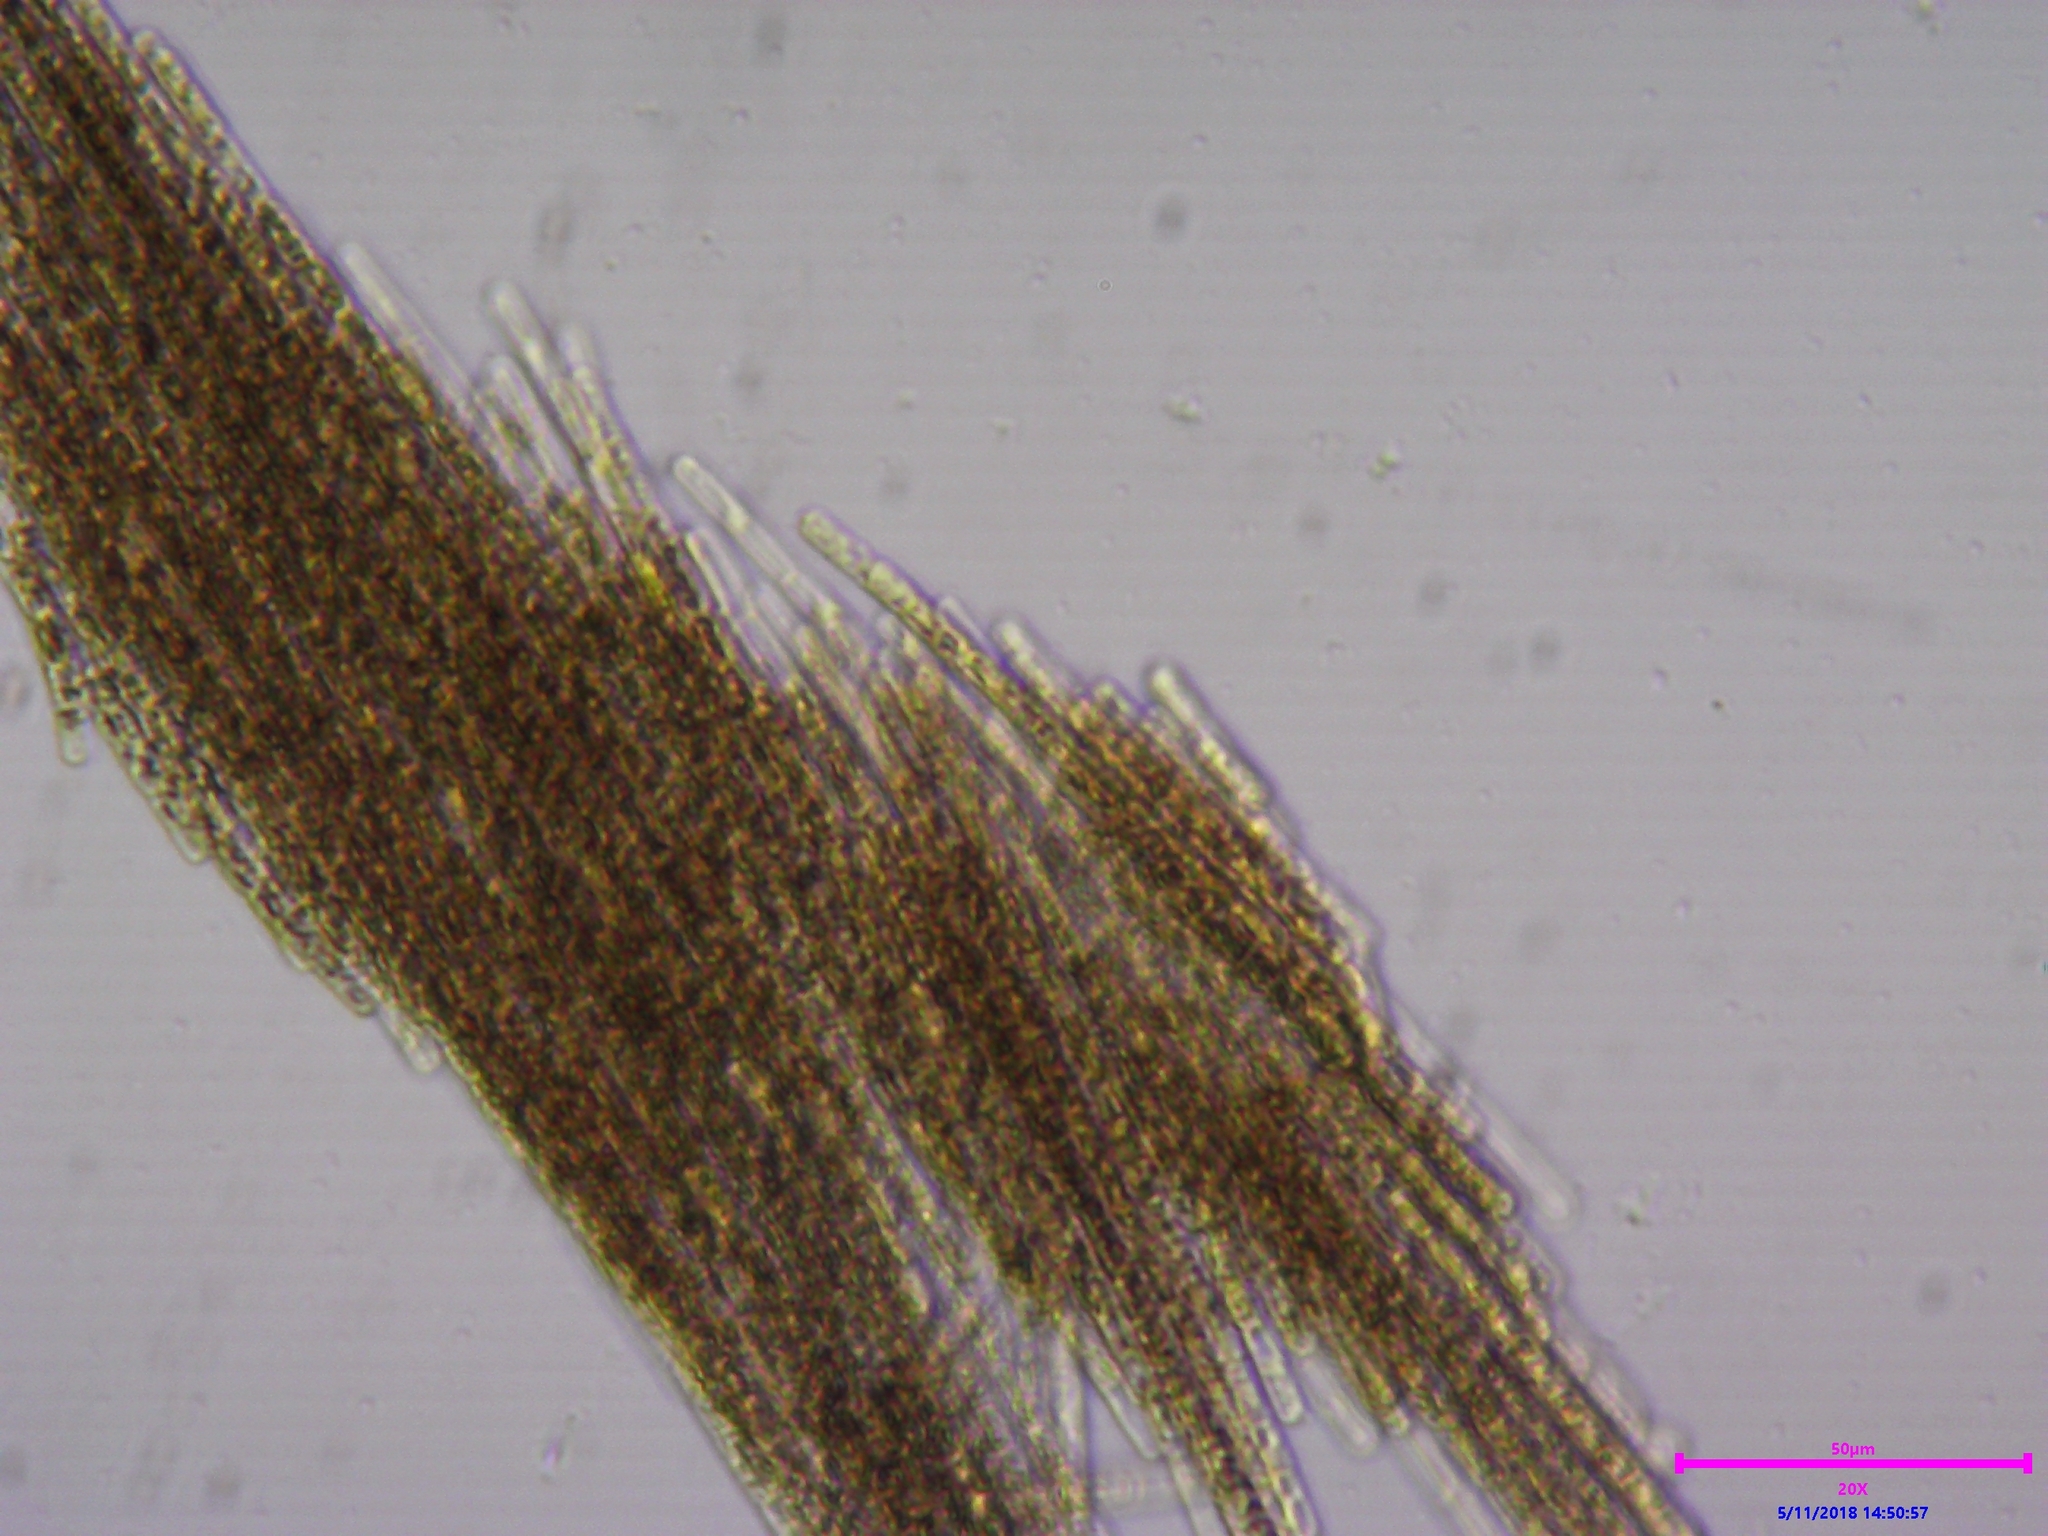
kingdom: Bacteria
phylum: Cyanobacteria
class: Cyanobacteriia
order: Cyanobacteriales
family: Aphanizomenonaceae
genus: Aphanizomenon
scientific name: Aphanizomenon flosaquae
